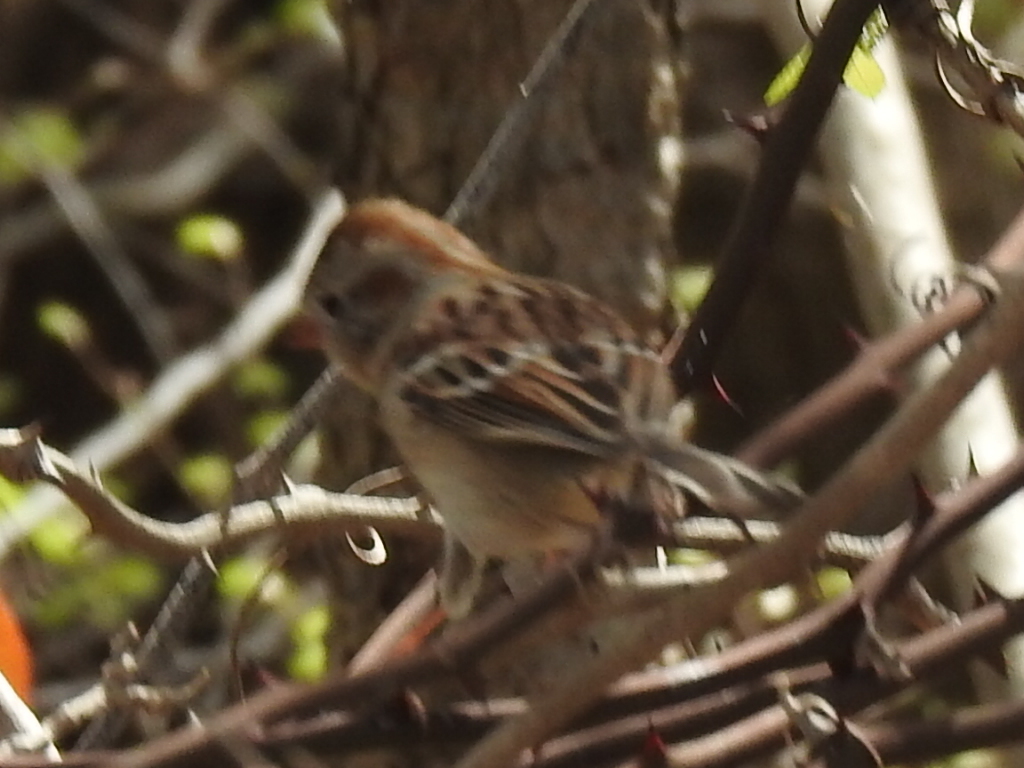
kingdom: Animalia
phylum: Chordata
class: Aves
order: Passeriformes
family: Passerellidae
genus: Spizella
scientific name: Spizella pusilla
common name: Field sparrow
